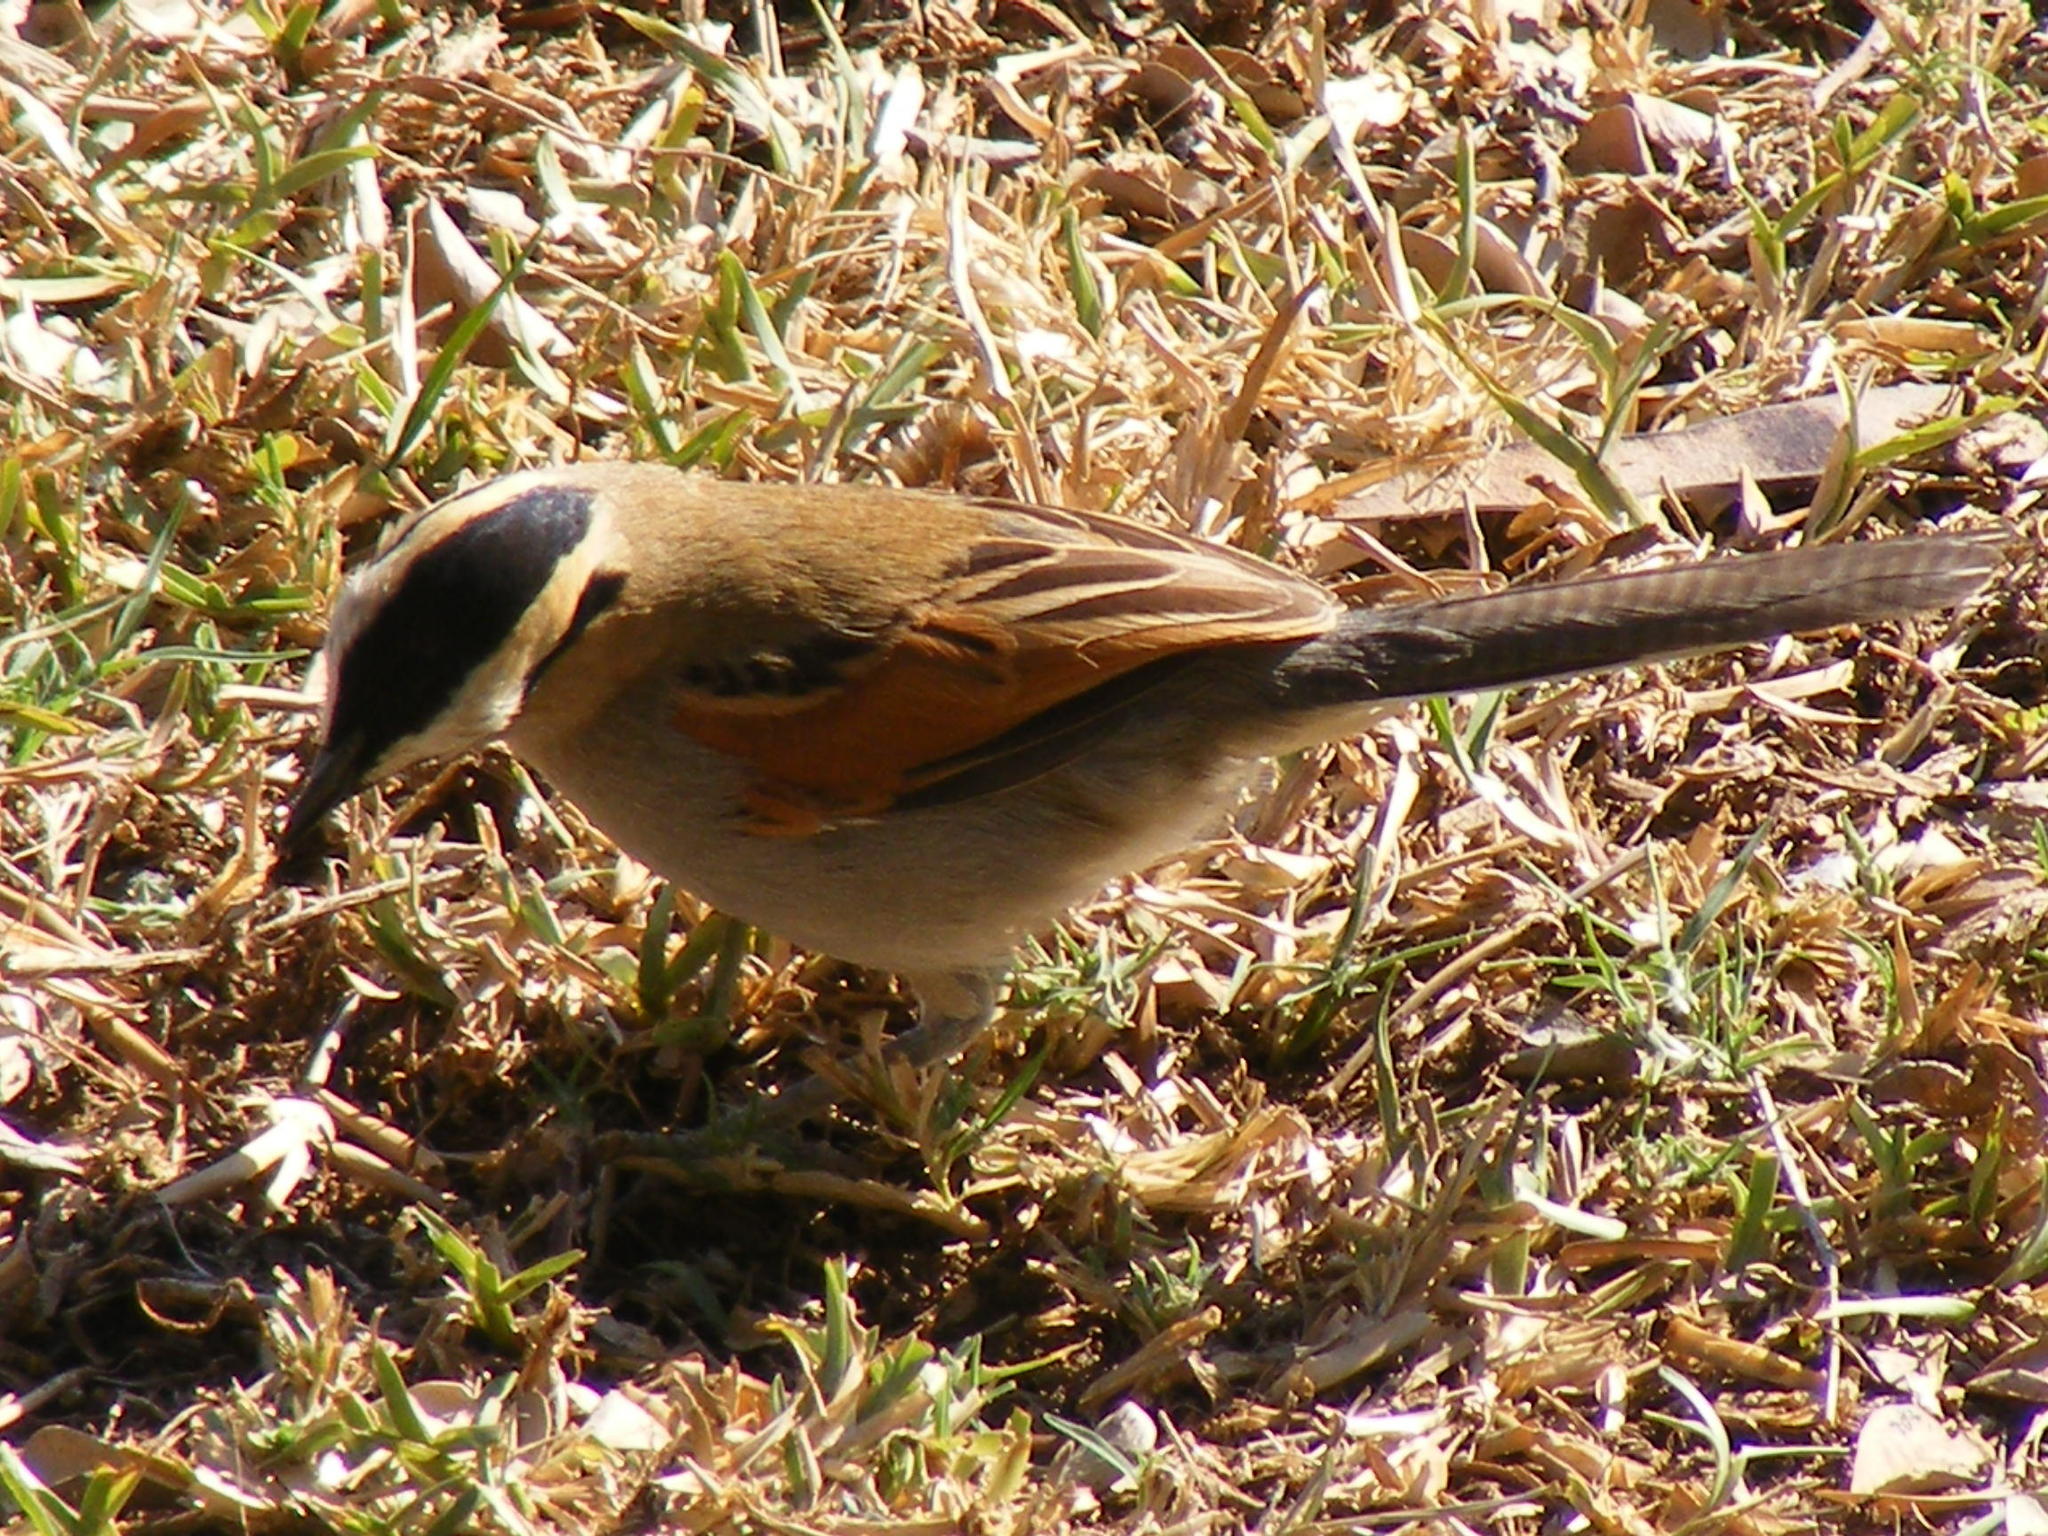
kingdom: Animalia
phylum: Chordata
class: Aves
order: Passeriformes
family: Malaconotidae
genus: Tchagra
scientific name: Tchagra senegalus
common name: Black-crowned tchagra
